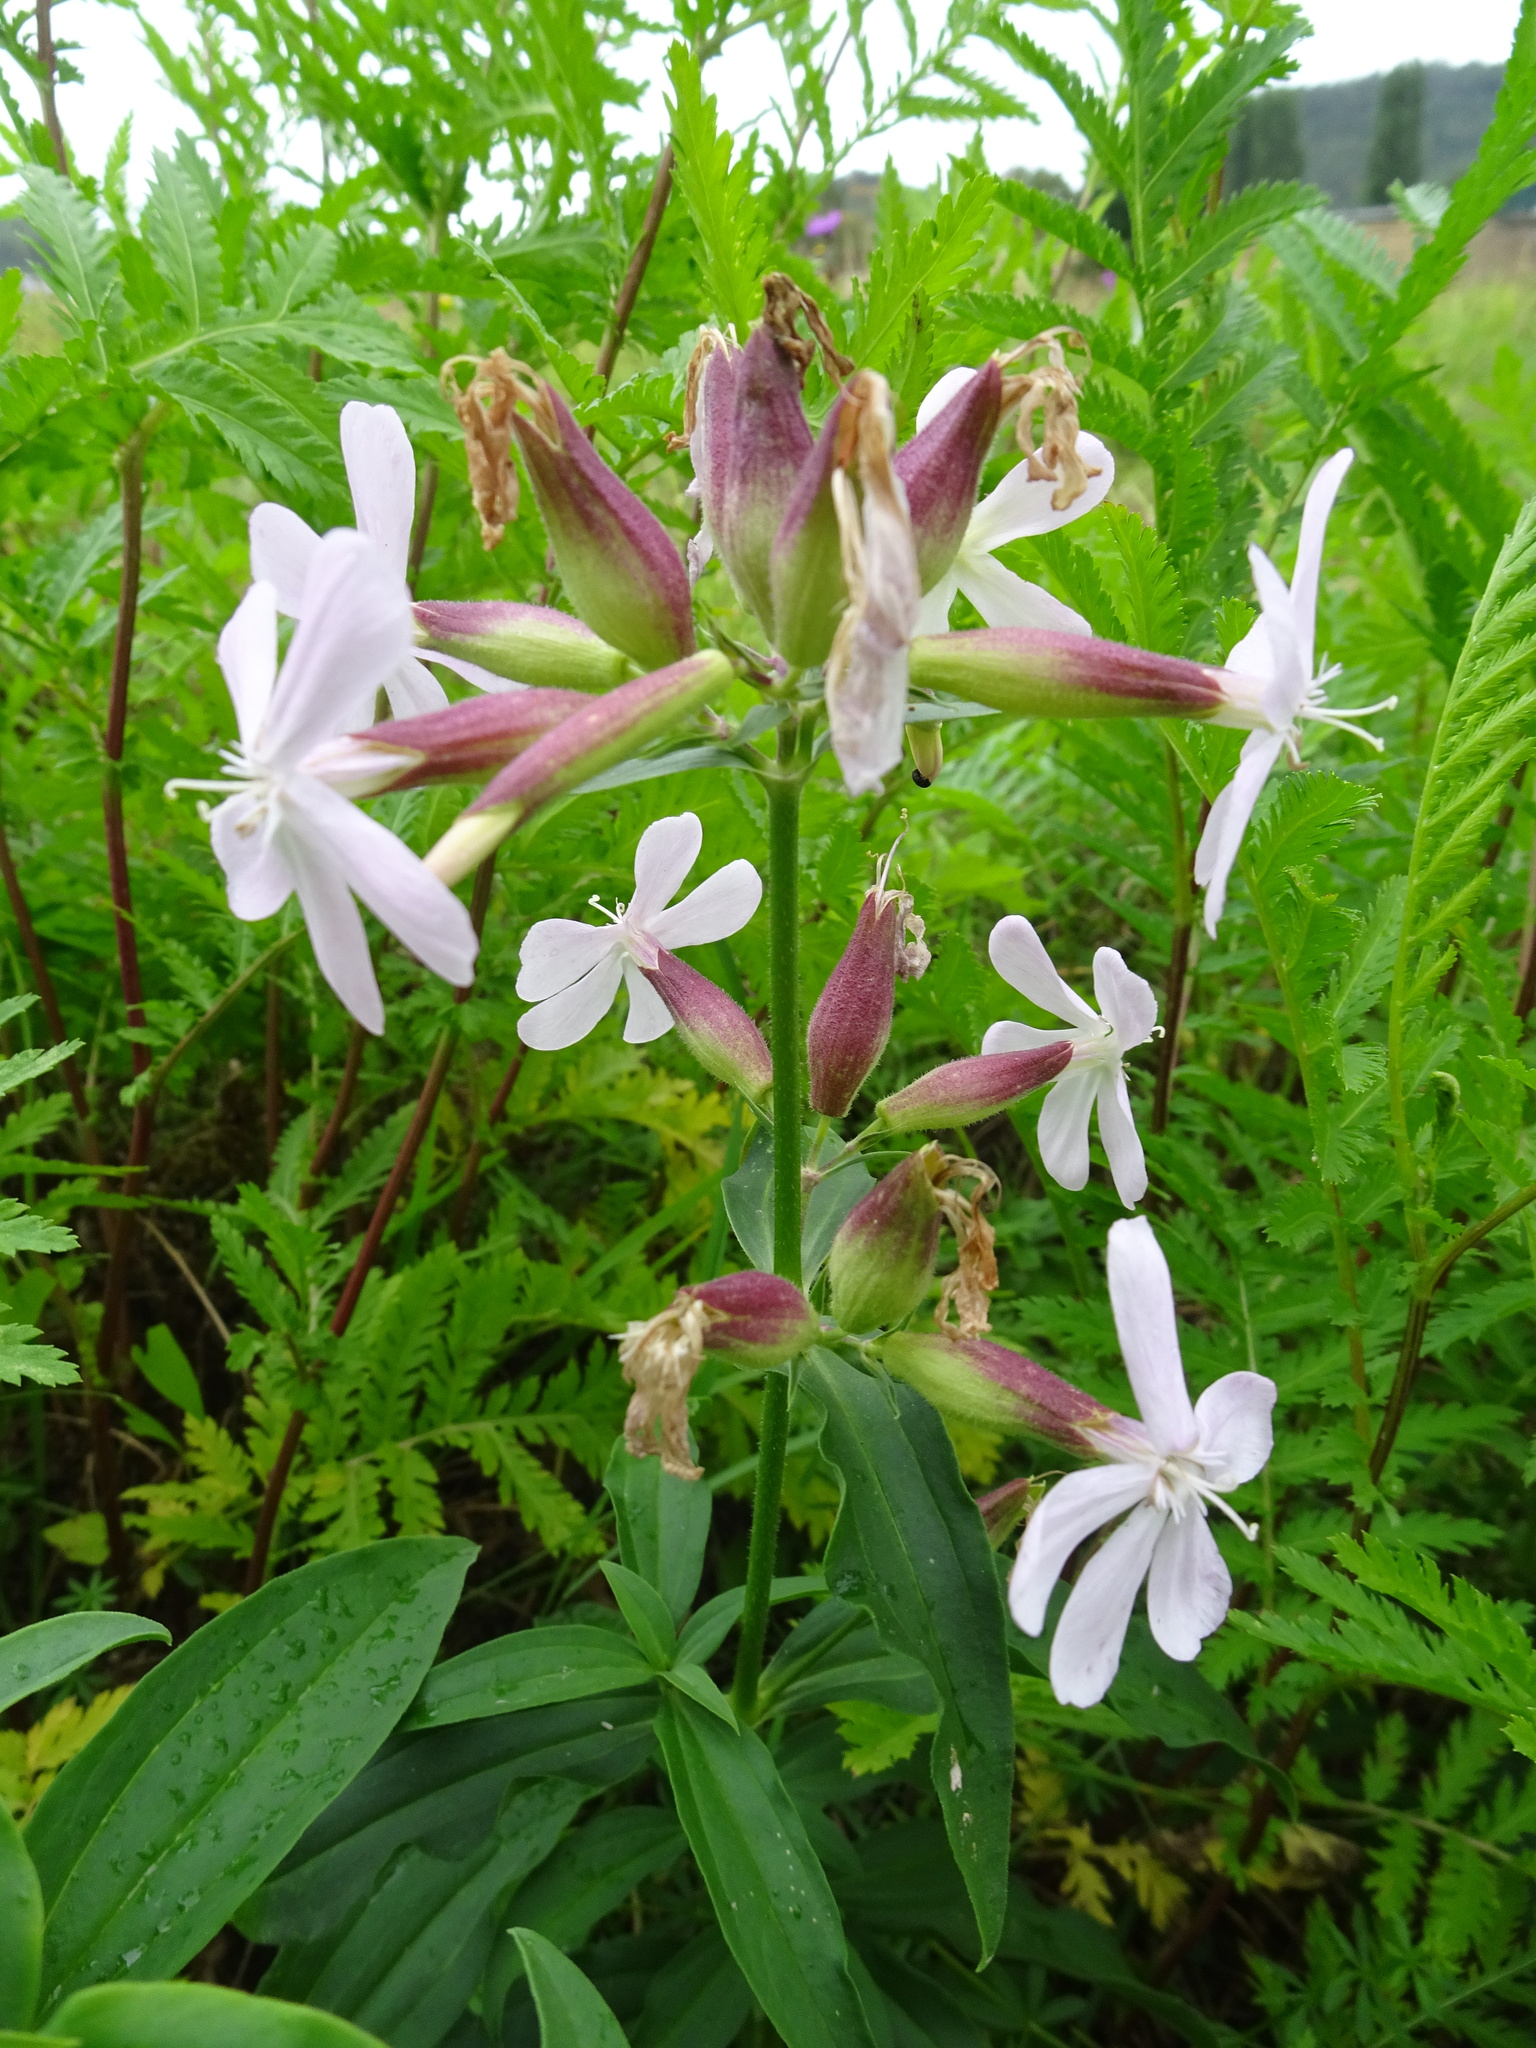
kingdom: Plantae
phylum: Tracheophyta
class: Magnoliopsida
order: Caryophyllales
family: Caryophyllaceae
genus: Saponaria
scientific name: Saponaria officinalis
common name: Soapwort
